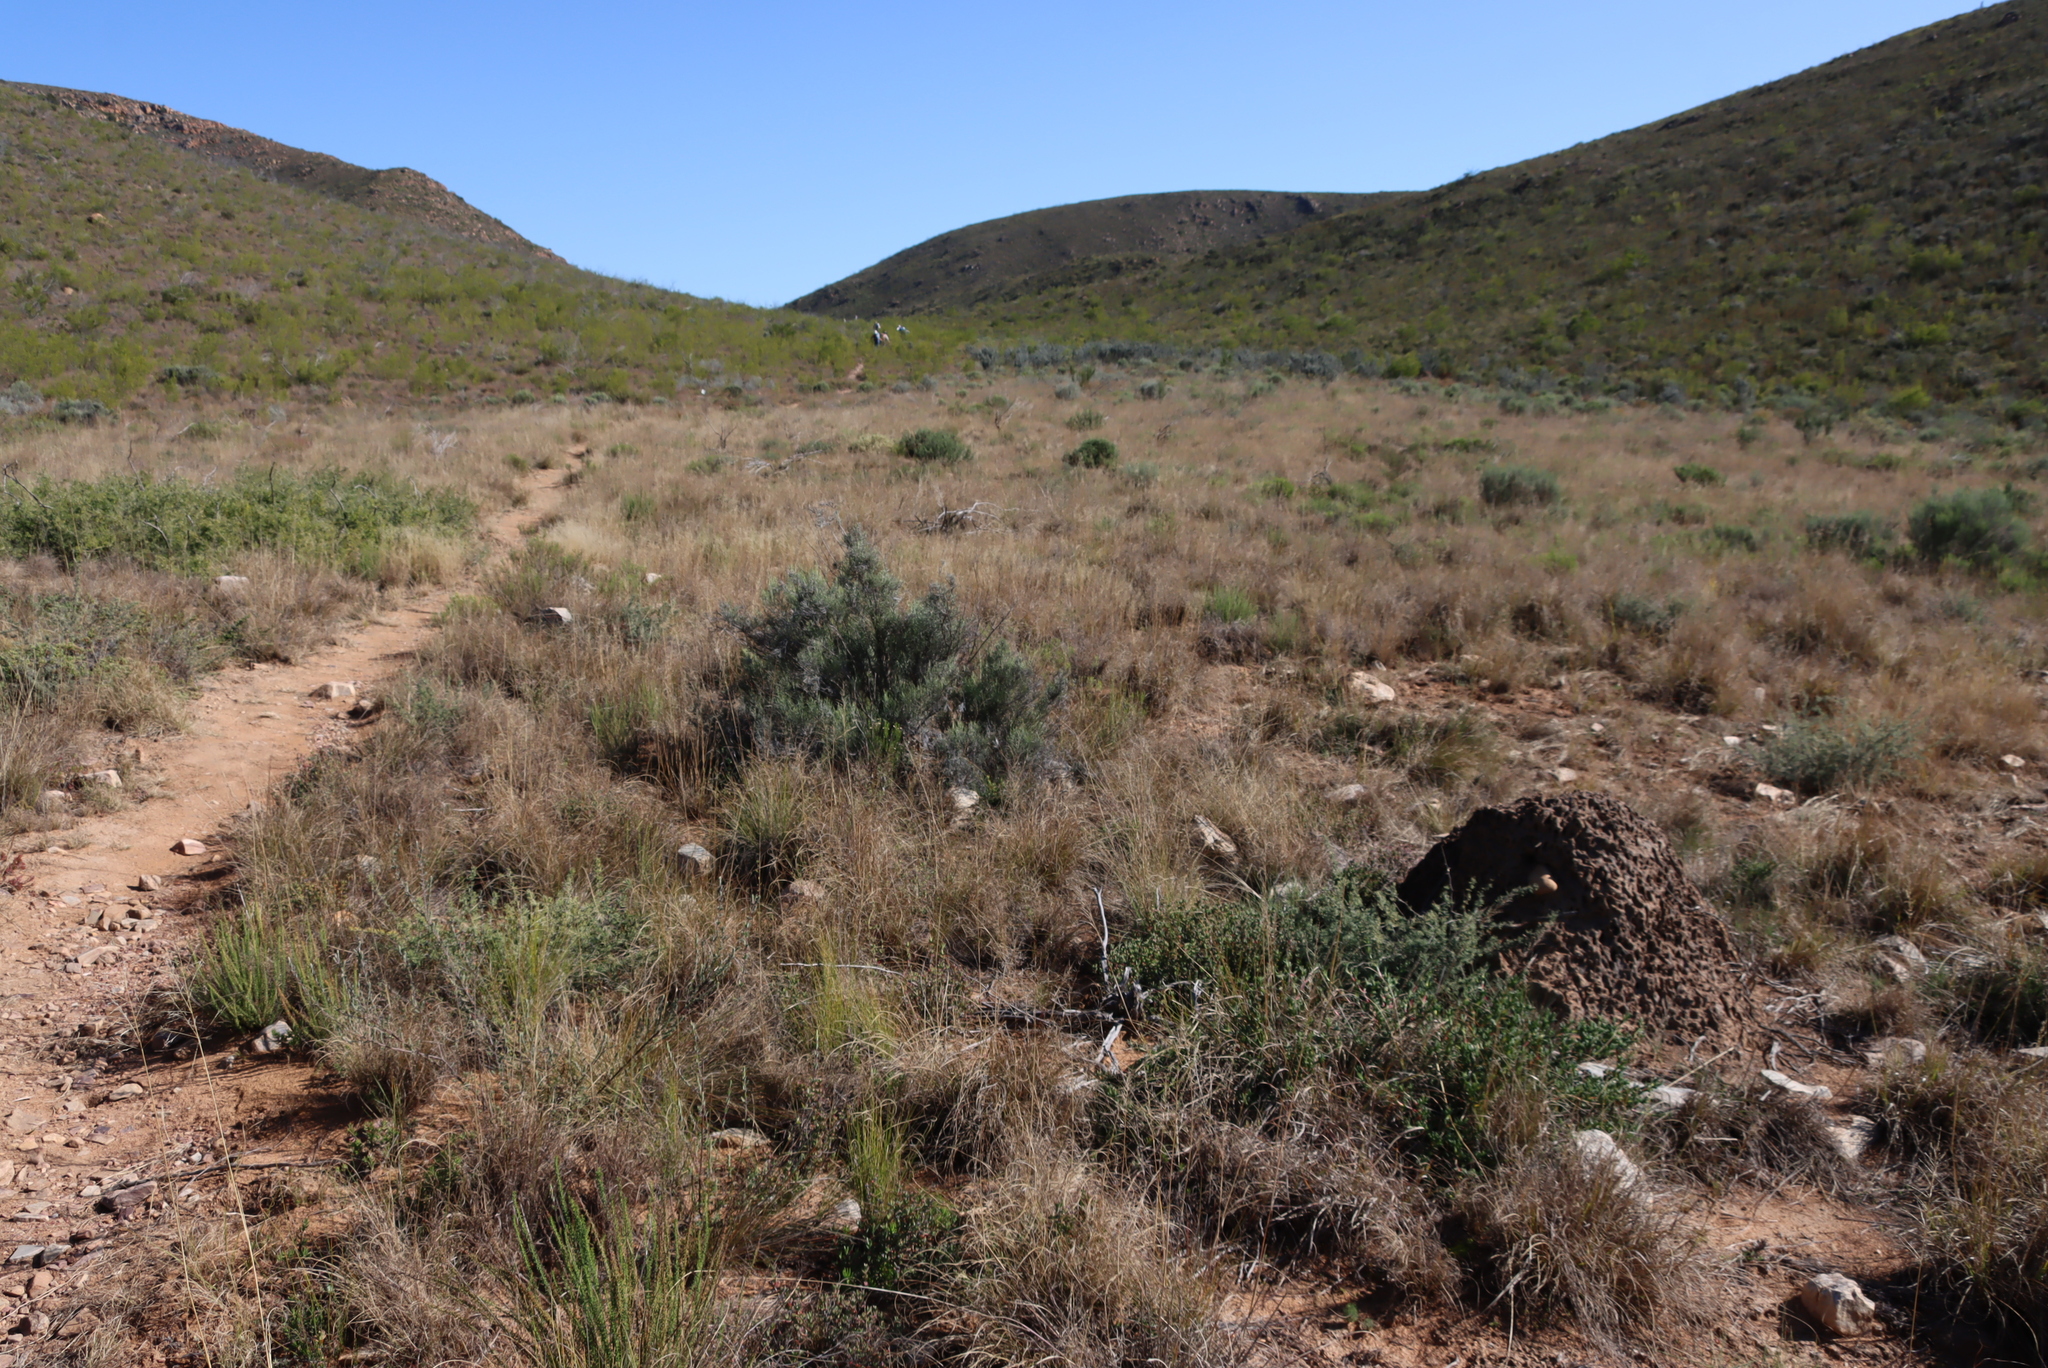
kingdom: Plantae
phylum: Tracheophyta
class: Magnoliopsida
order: Asterales
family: Asteraceae
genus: Dicerothamnus
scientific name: Dicerothamnus rhinocerotis
